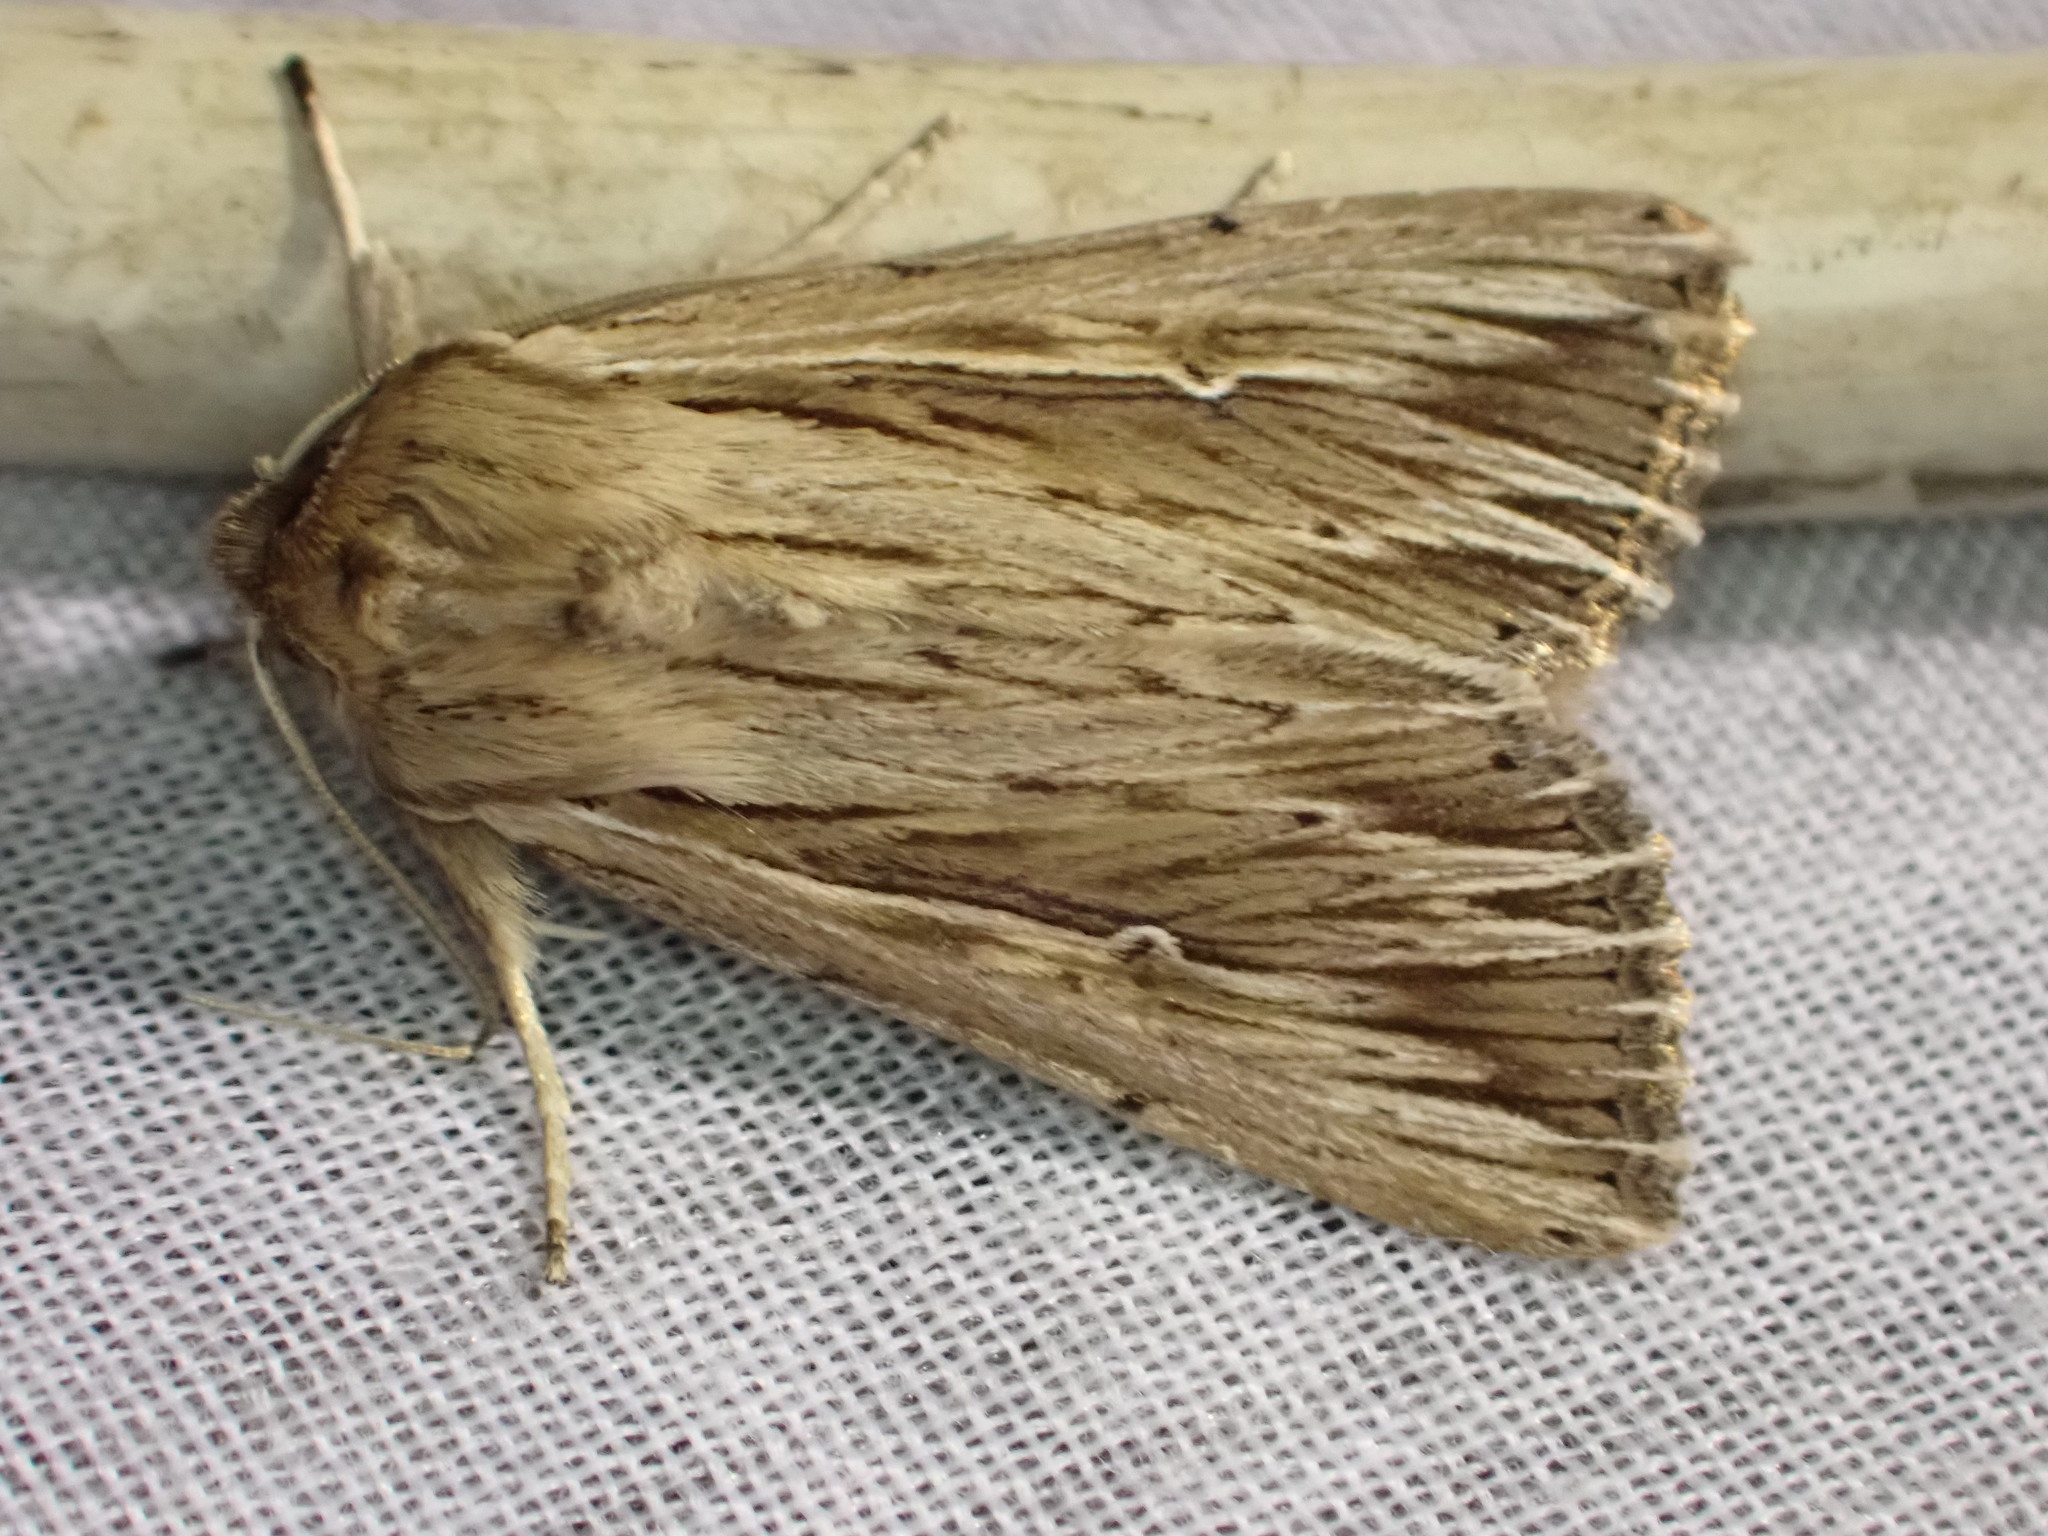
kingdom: Animalia
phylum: Arthropoda
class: Insecta
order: Lepidoptera
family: Noctuidae
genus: Persectania
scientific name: Persectania aversa
